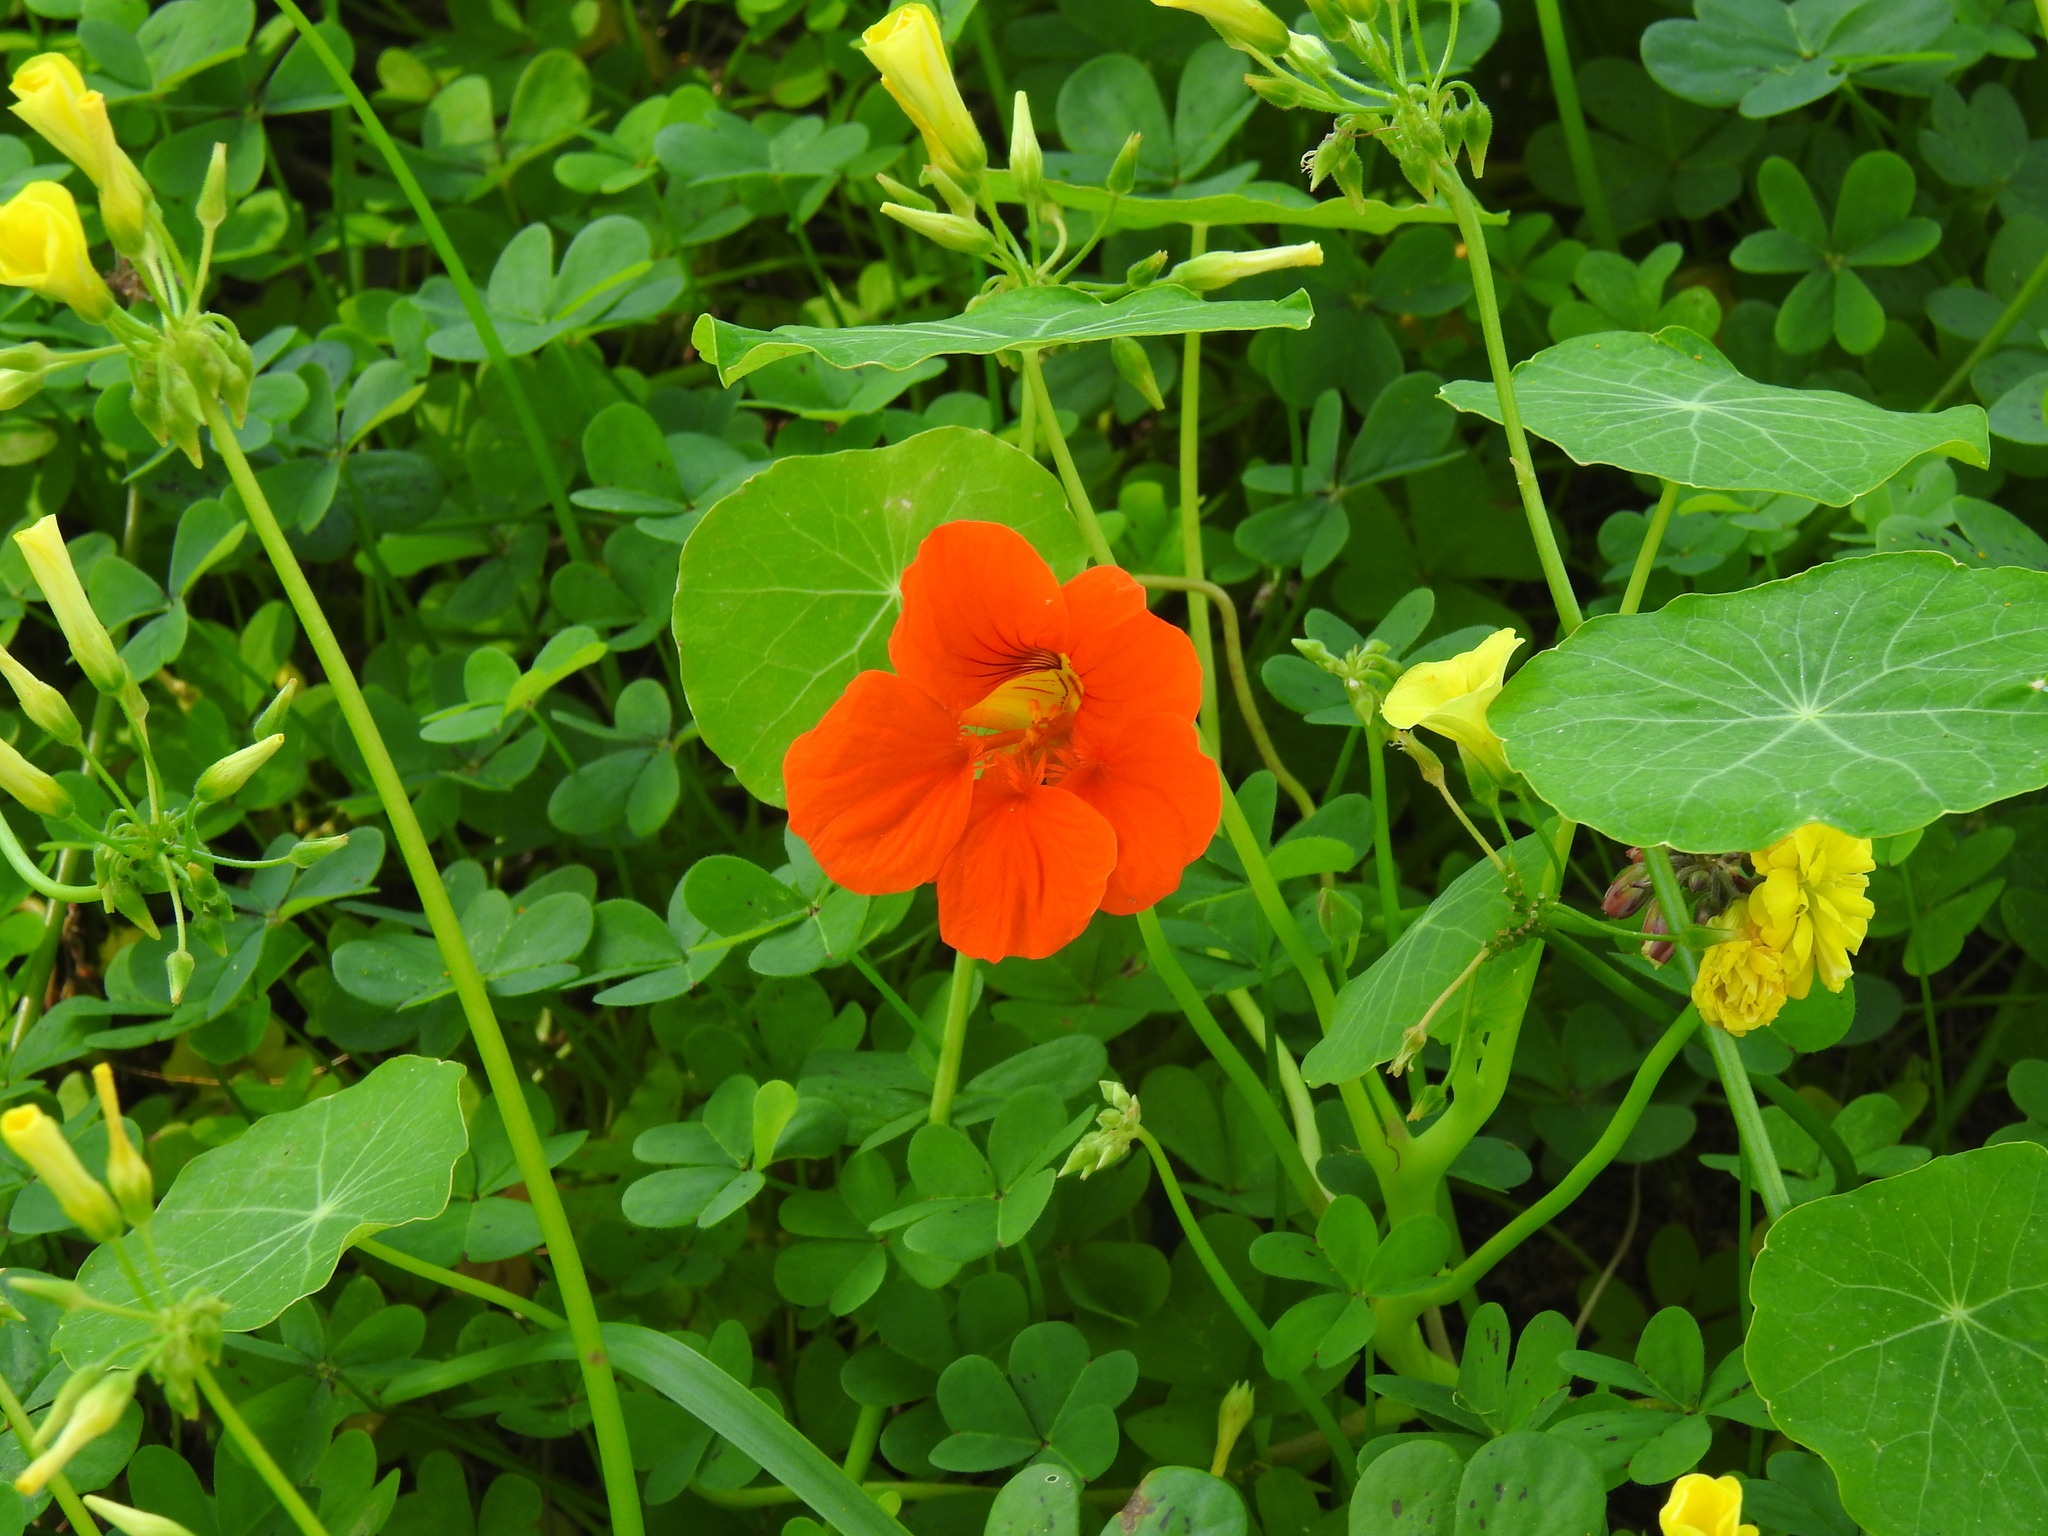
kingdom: Plantae
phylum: Tracheophyta
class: Magnoliopsida
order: Brassicales
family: Tropaeolaceae
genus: Tropaeolum
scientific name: Tropaeolum majus
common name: Nasturtium
